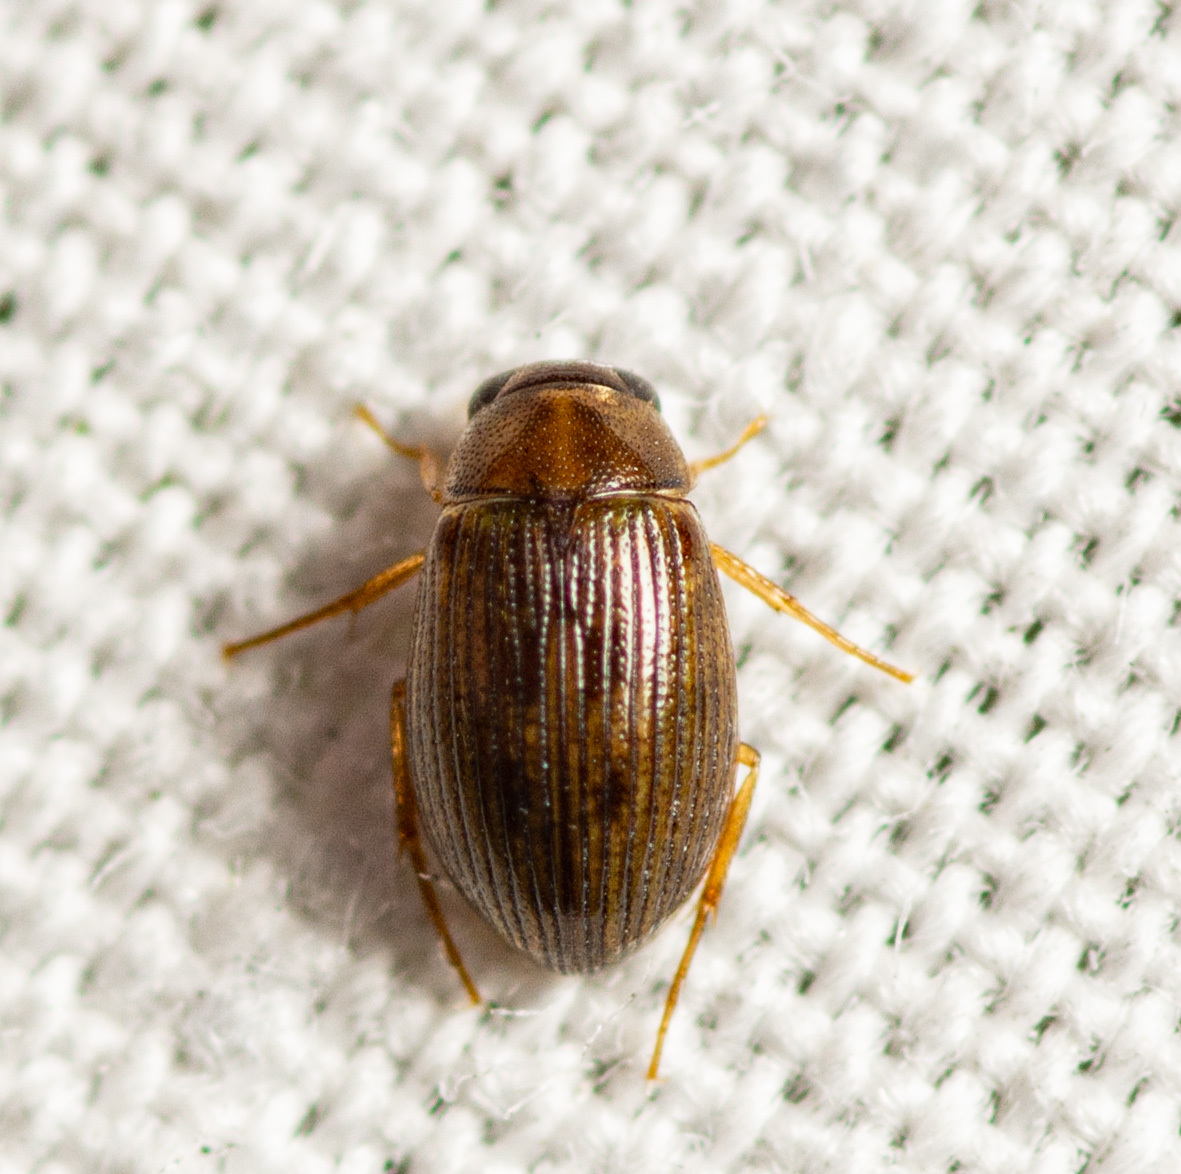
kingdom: Animalia
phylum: Arthropoda
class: Insecta
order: Coleoptera
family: Hydrophilidae
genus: Berosus
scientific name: Berosus
